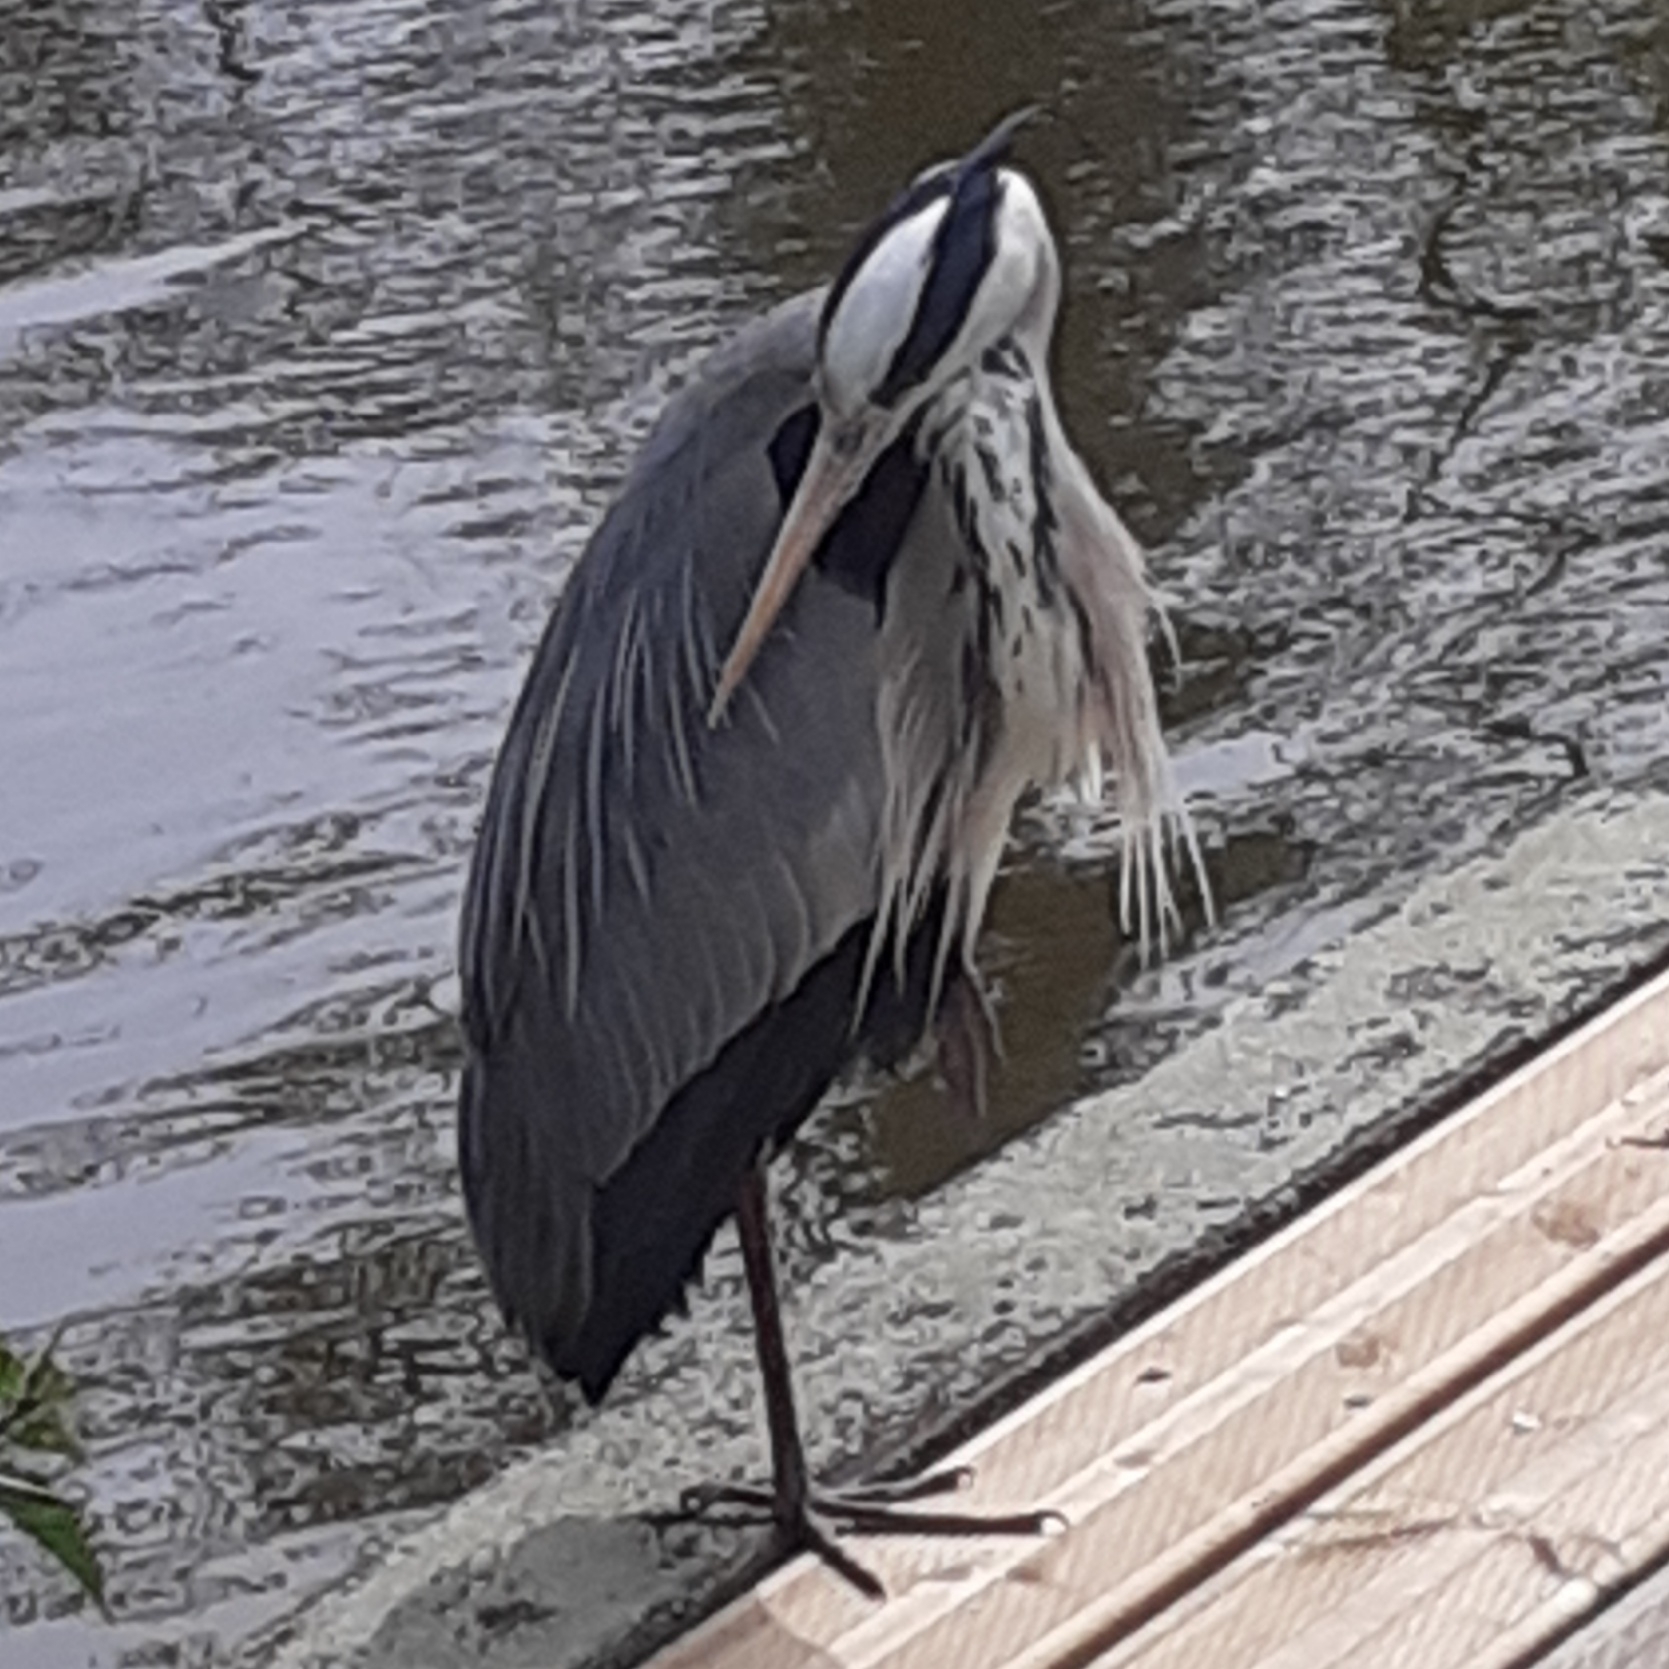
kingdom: Animalia
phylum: Chordata
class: Aves
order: Pelecaniformes
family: Ardeidae
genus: Ardea
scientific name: Ardea cinerea
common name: Grey heron
